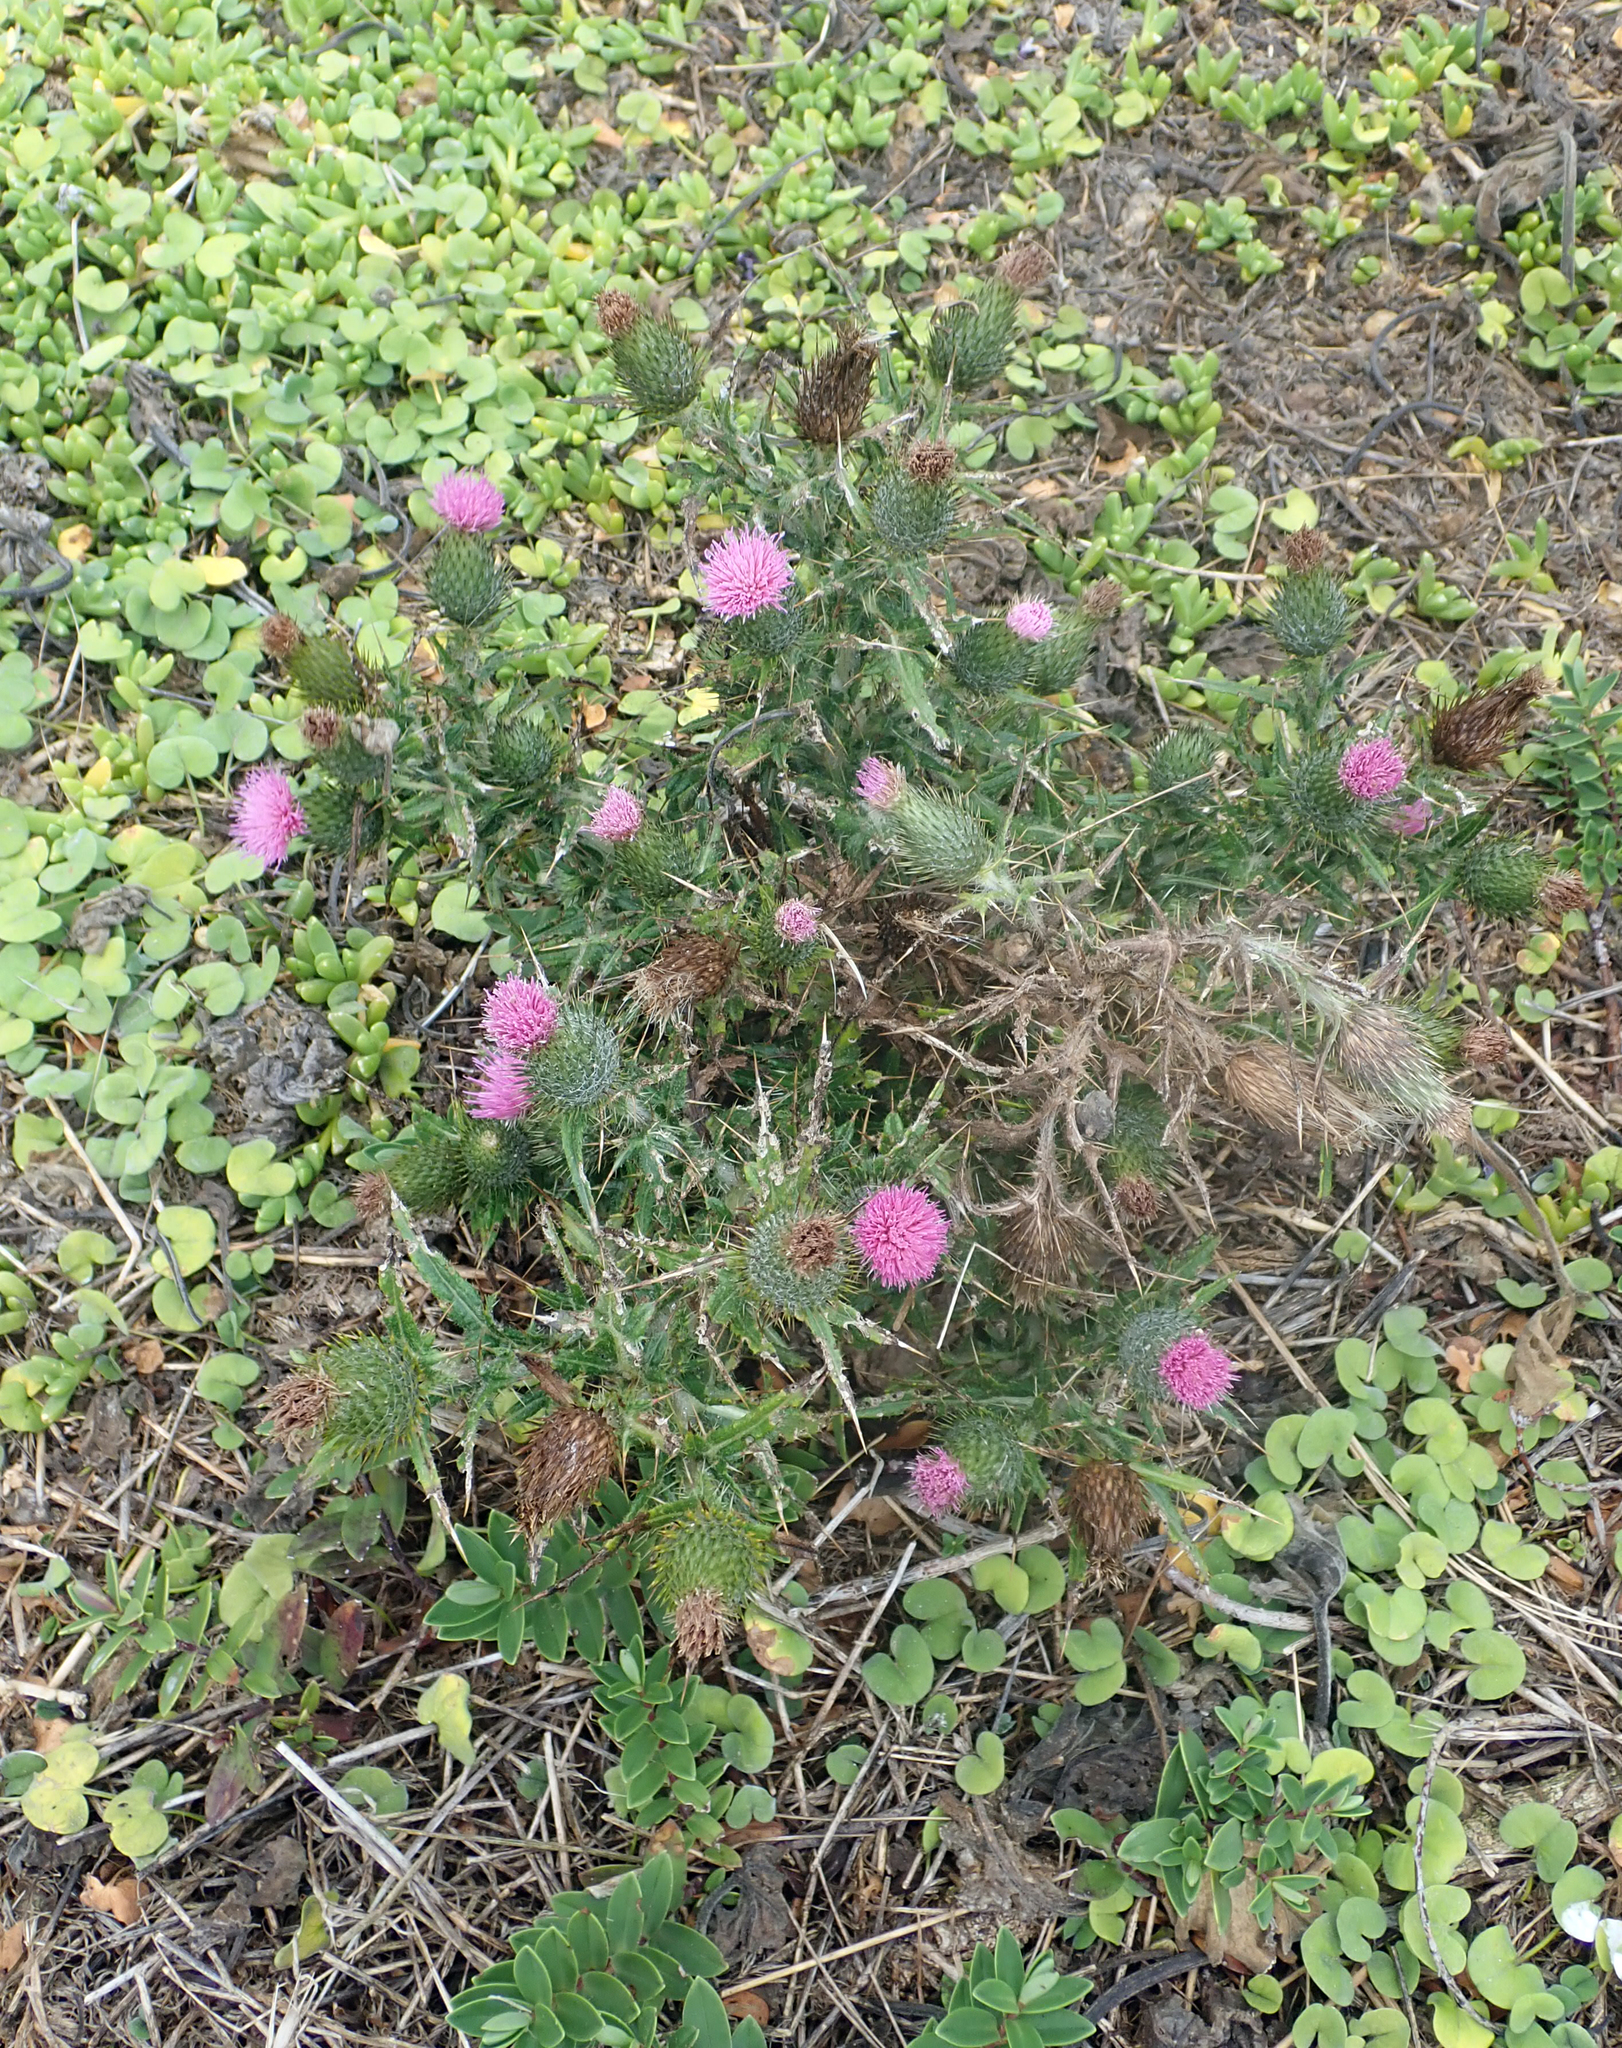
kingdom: Plantae
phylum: Tracheophyta
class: Magnoliopsida
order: Asterales
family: Asteraceae
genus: Cirsium
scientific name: Cirsium vulgare
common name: Bull thistle
